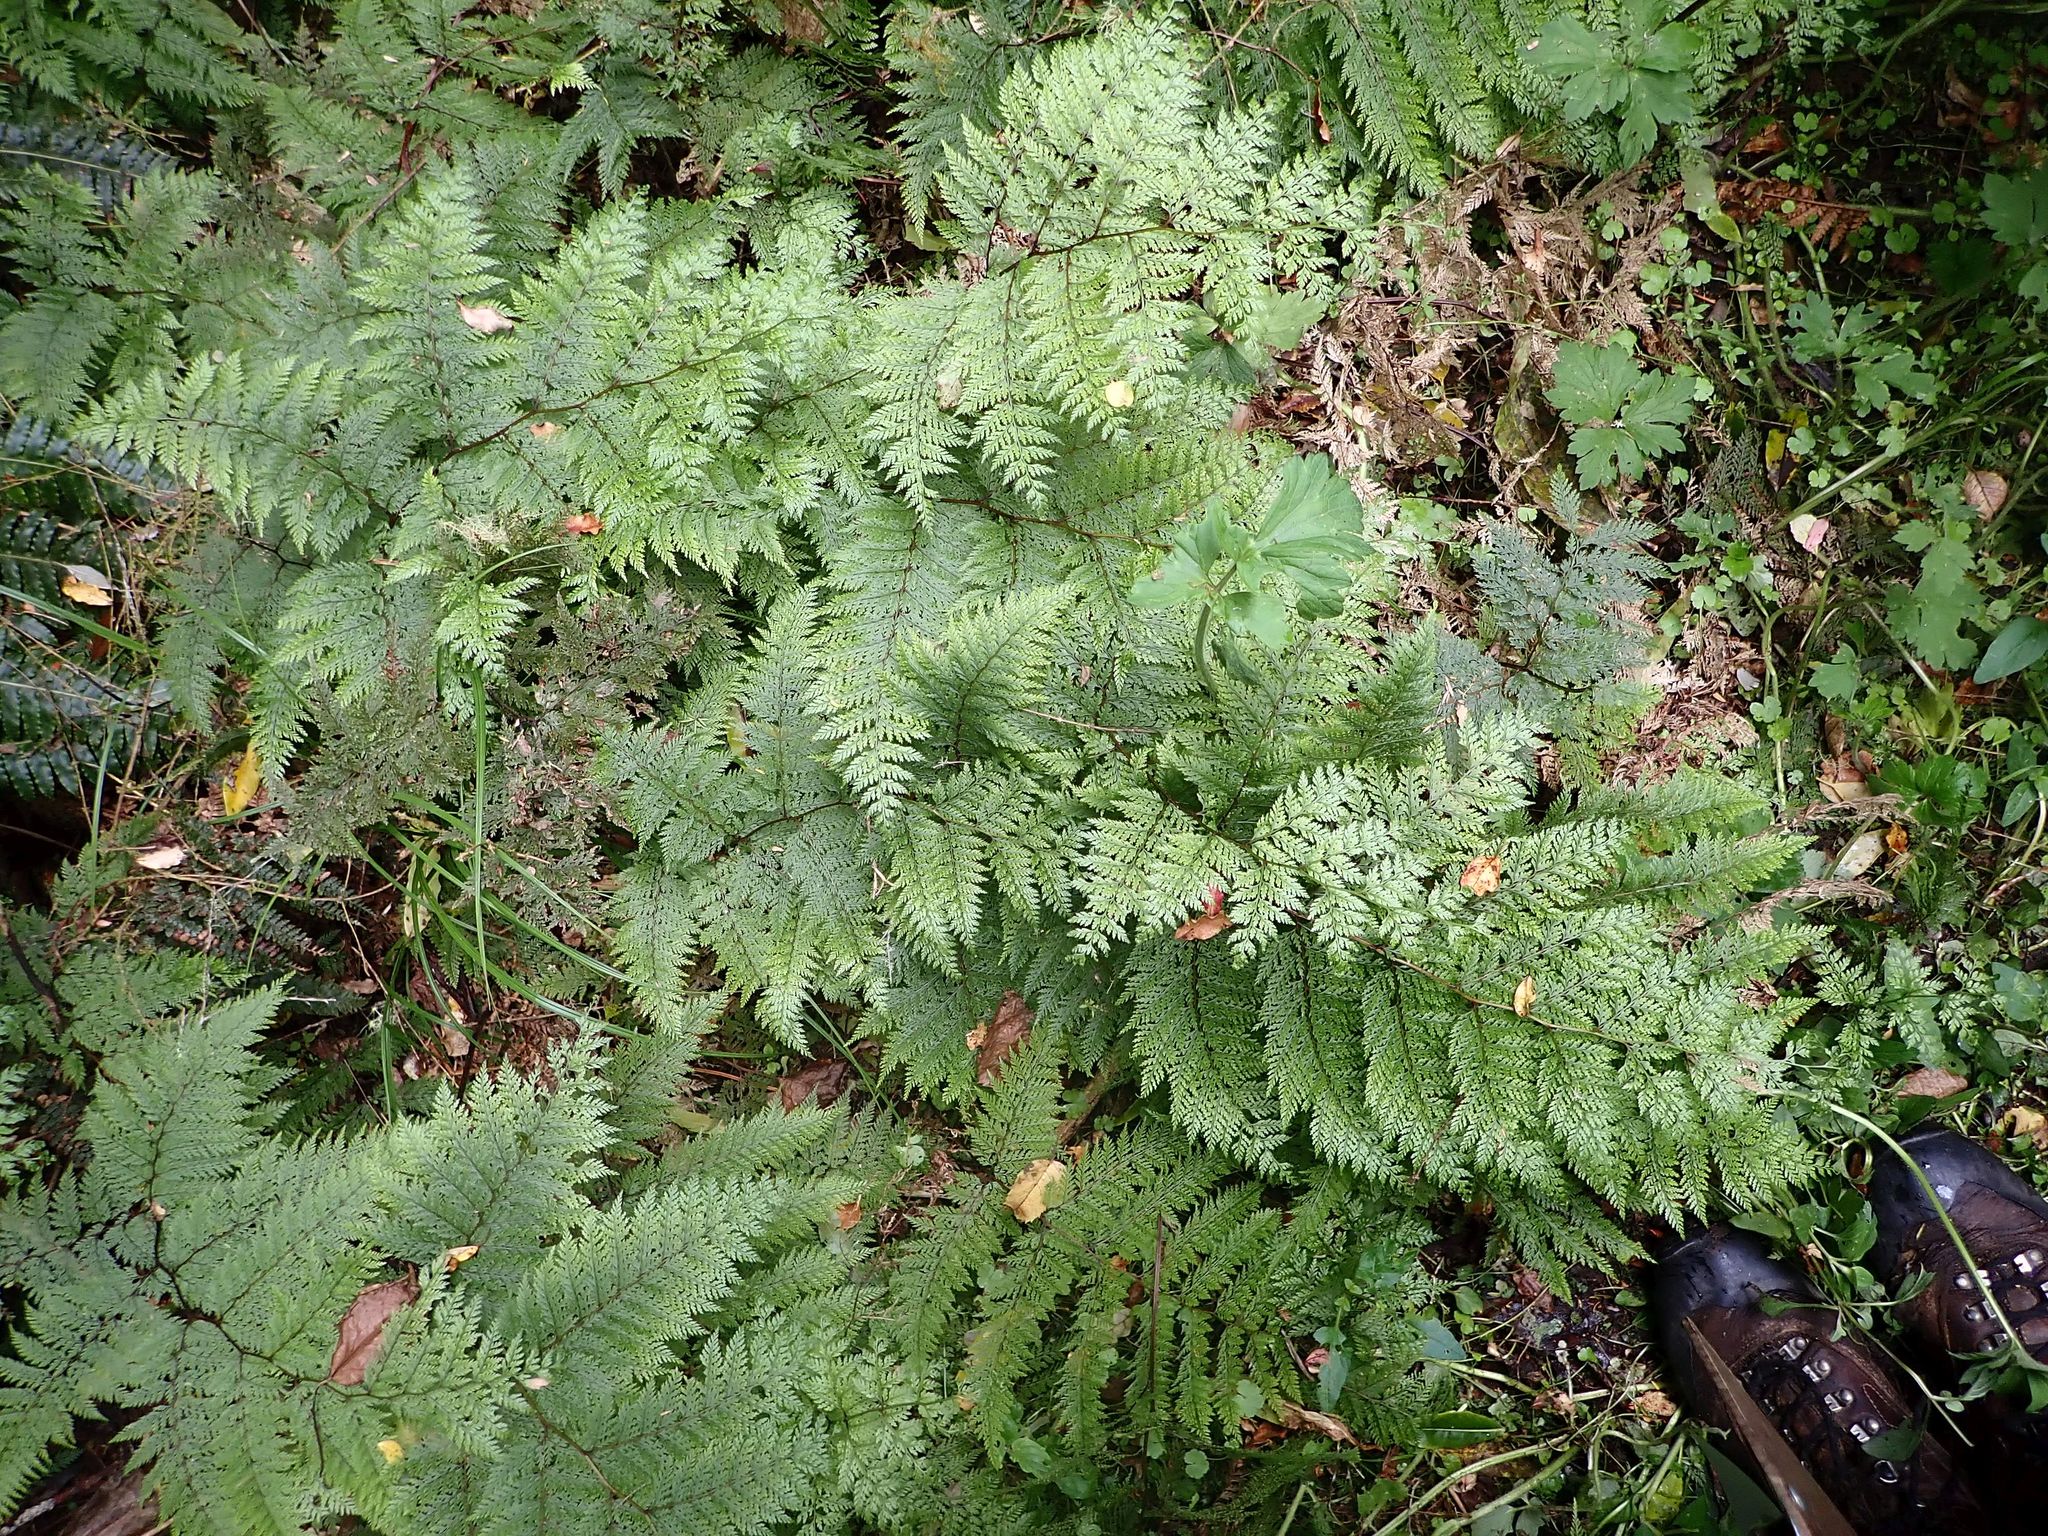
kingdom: Plantae
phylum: Tracheophyta
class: Polypodiopsida
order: Polypodiales
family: Dennstaedtiaceae
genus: Dennstaedtia
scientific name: Dennstaedtia novae-zelandiae
